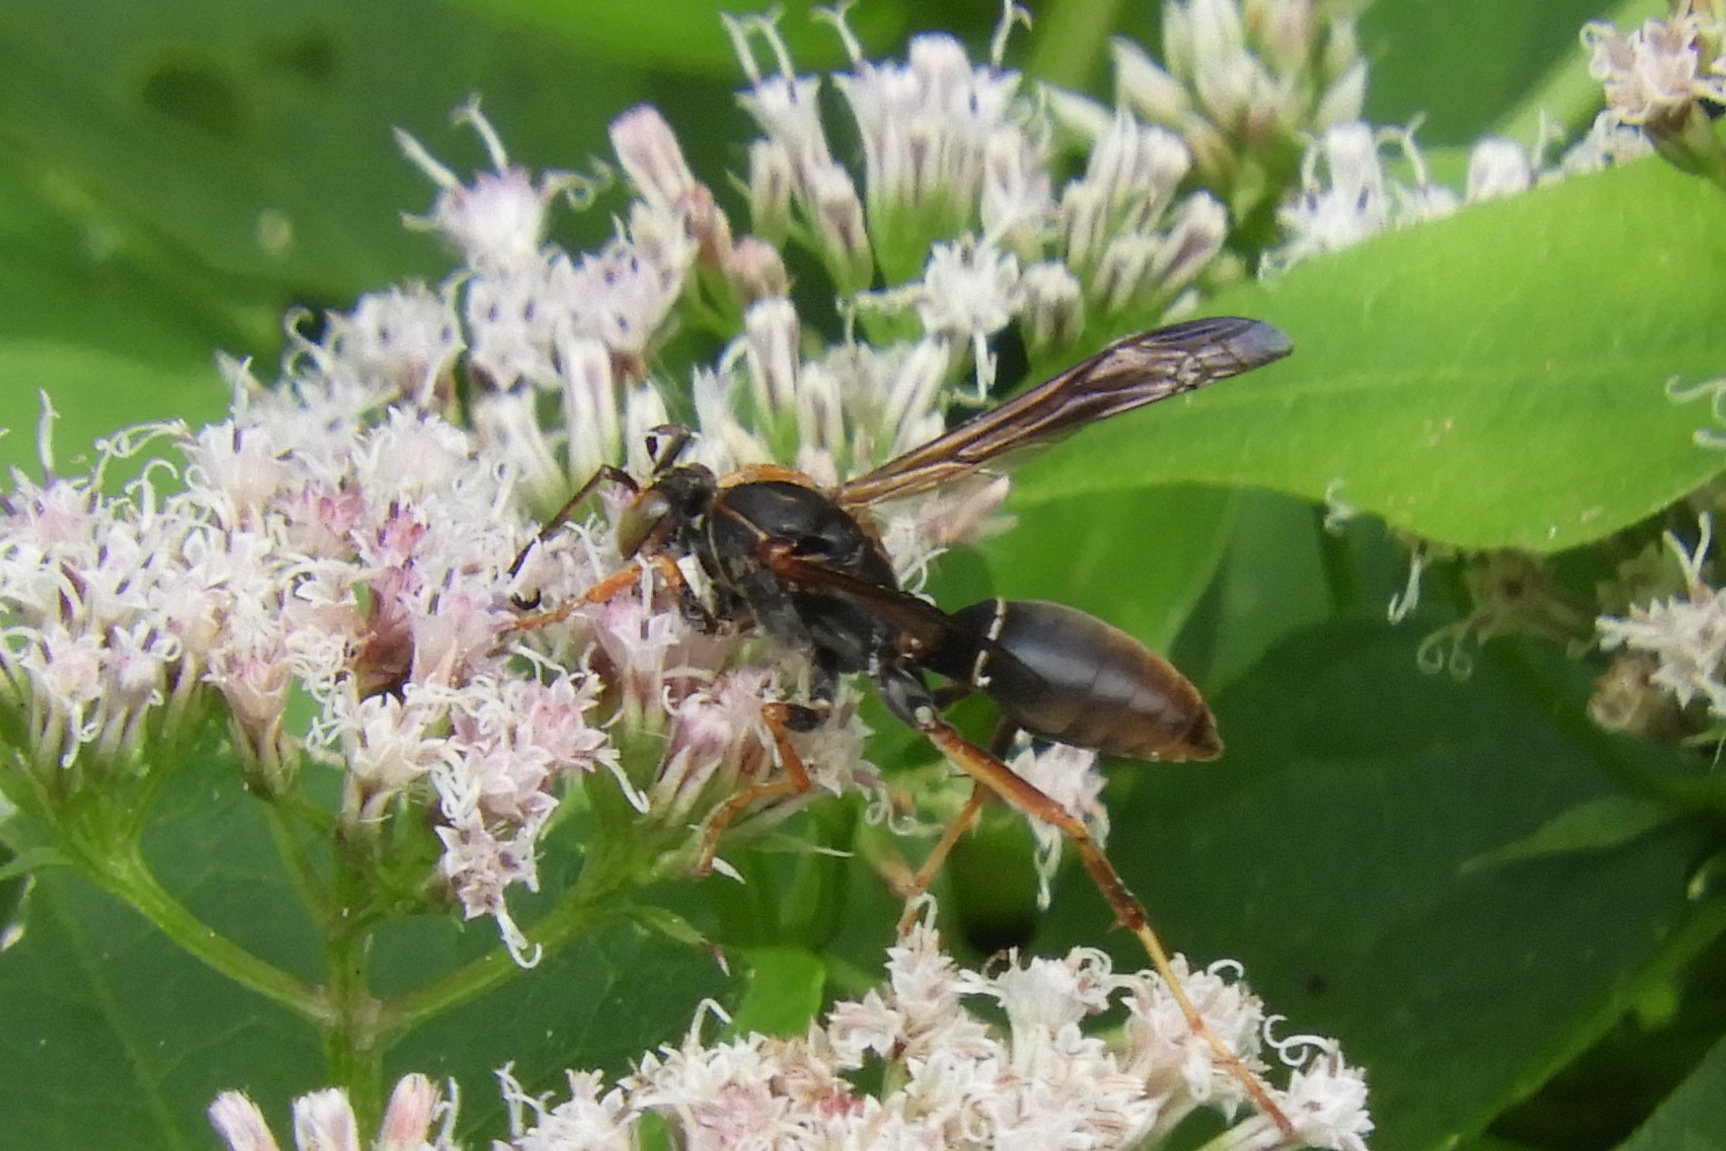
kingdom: Animalia
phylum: Arthropoda
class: Insecta
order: Hymenoptera
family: Eumenidae
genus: Polistes
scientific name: Polistes fuscatus
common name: Dark paper wasp
